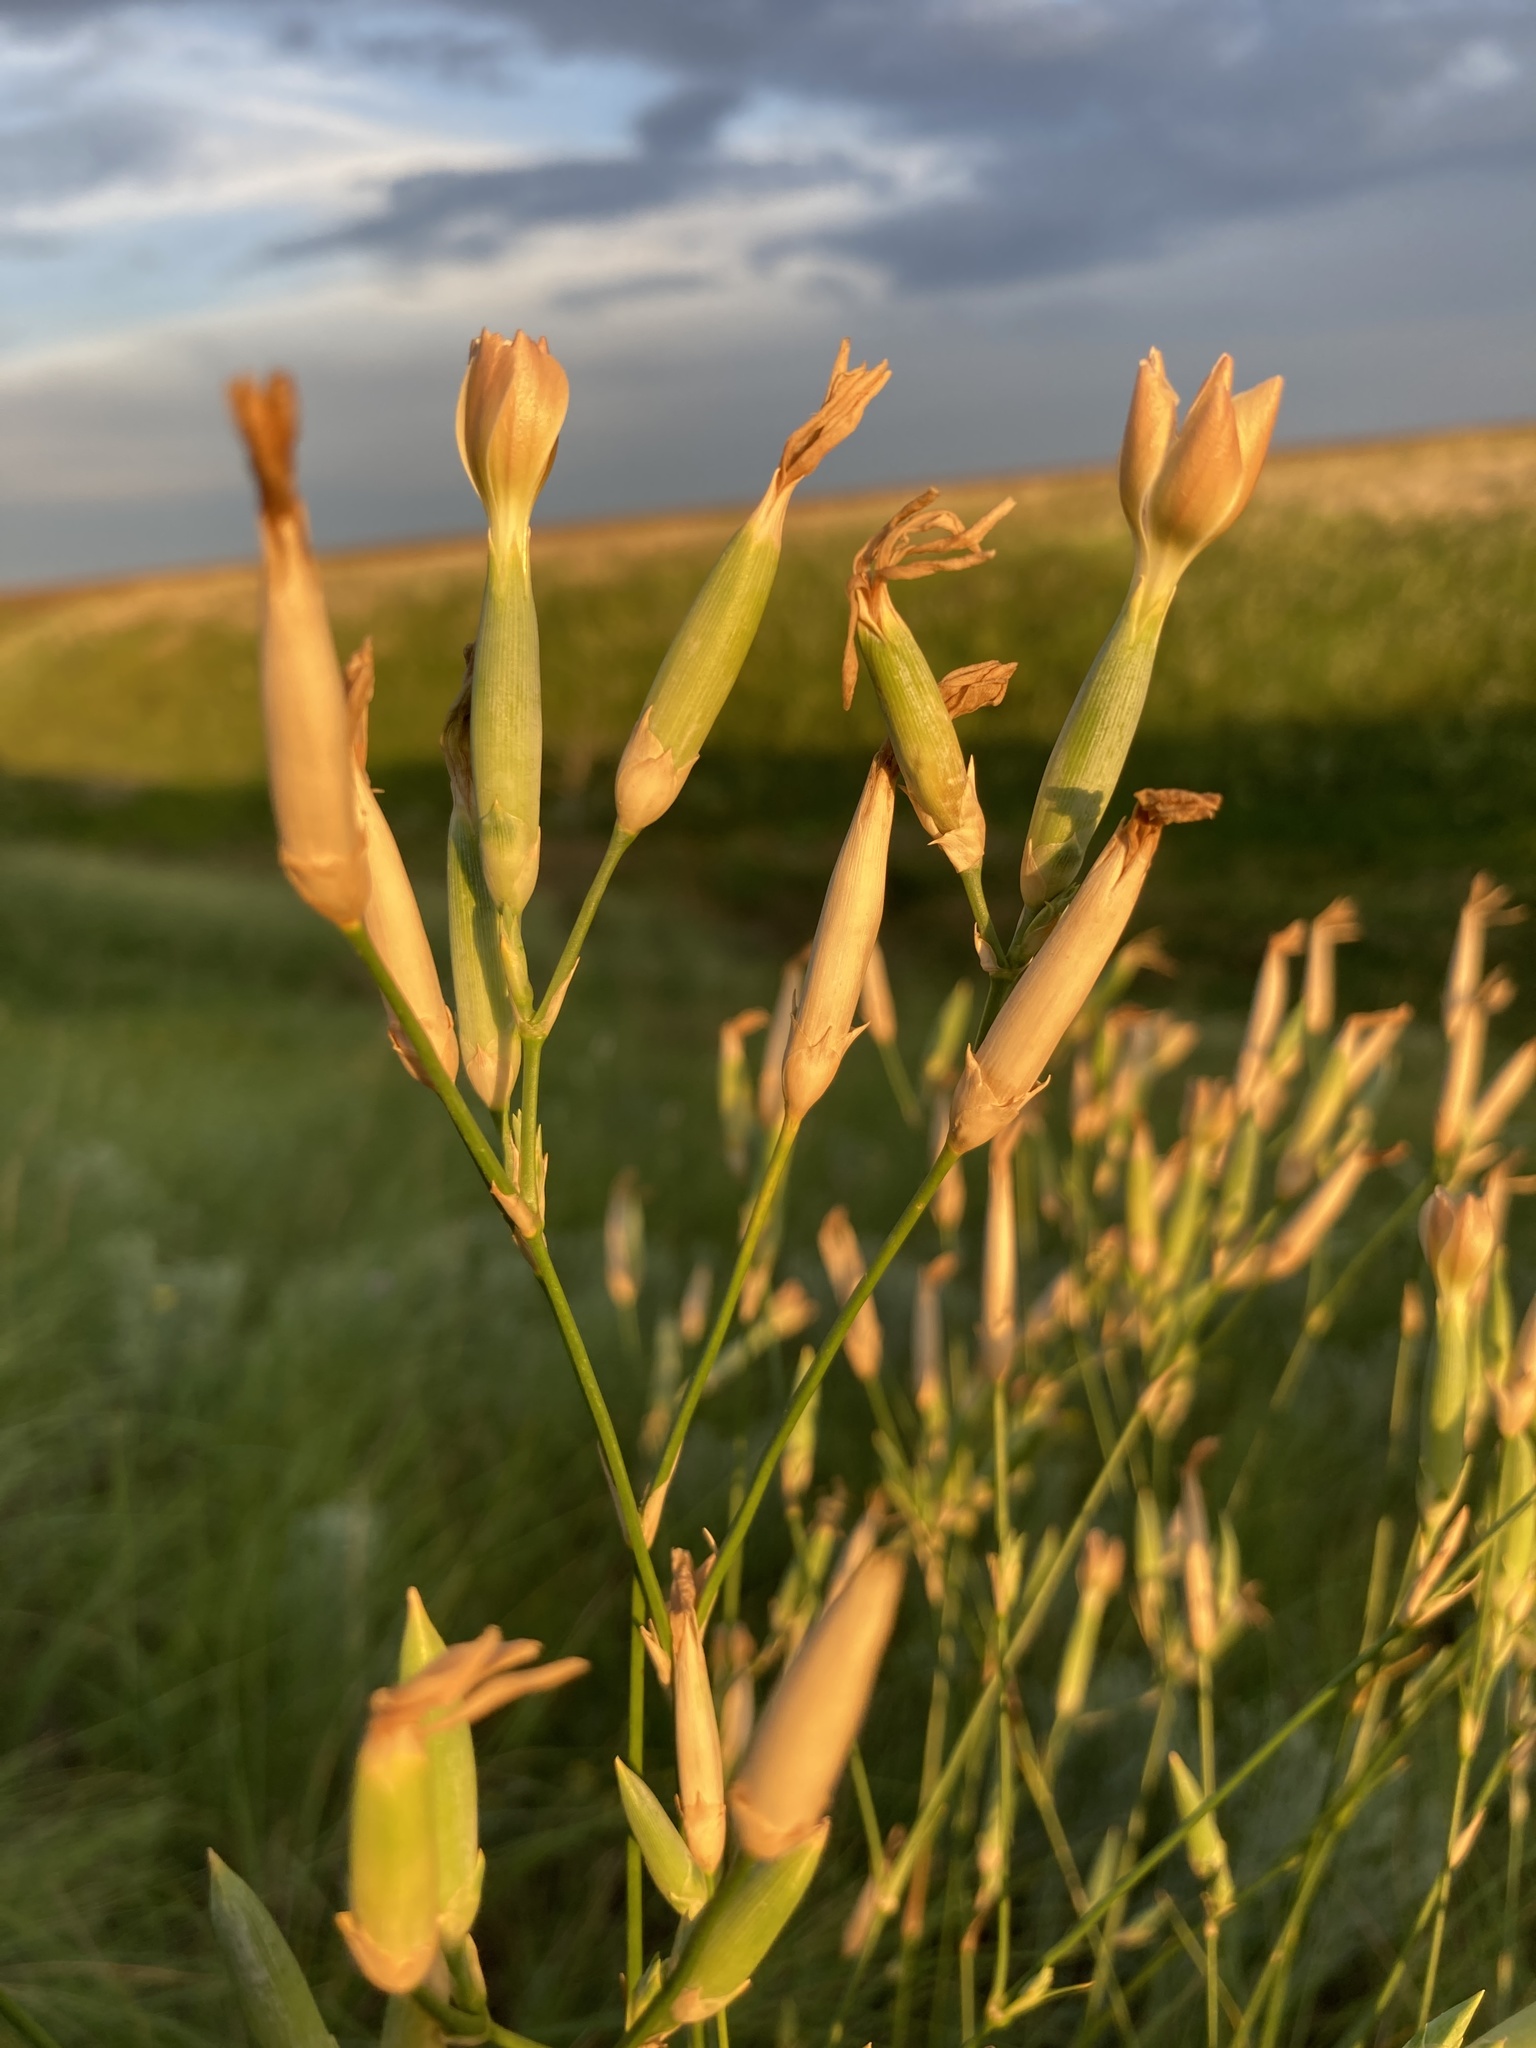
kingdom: Plantae
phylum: Tracheophyta
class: Magnoliopsida
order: Caryophyllales
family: Caryophyllaceae
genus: Dianthus
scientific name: Dianthus lanceolatus
